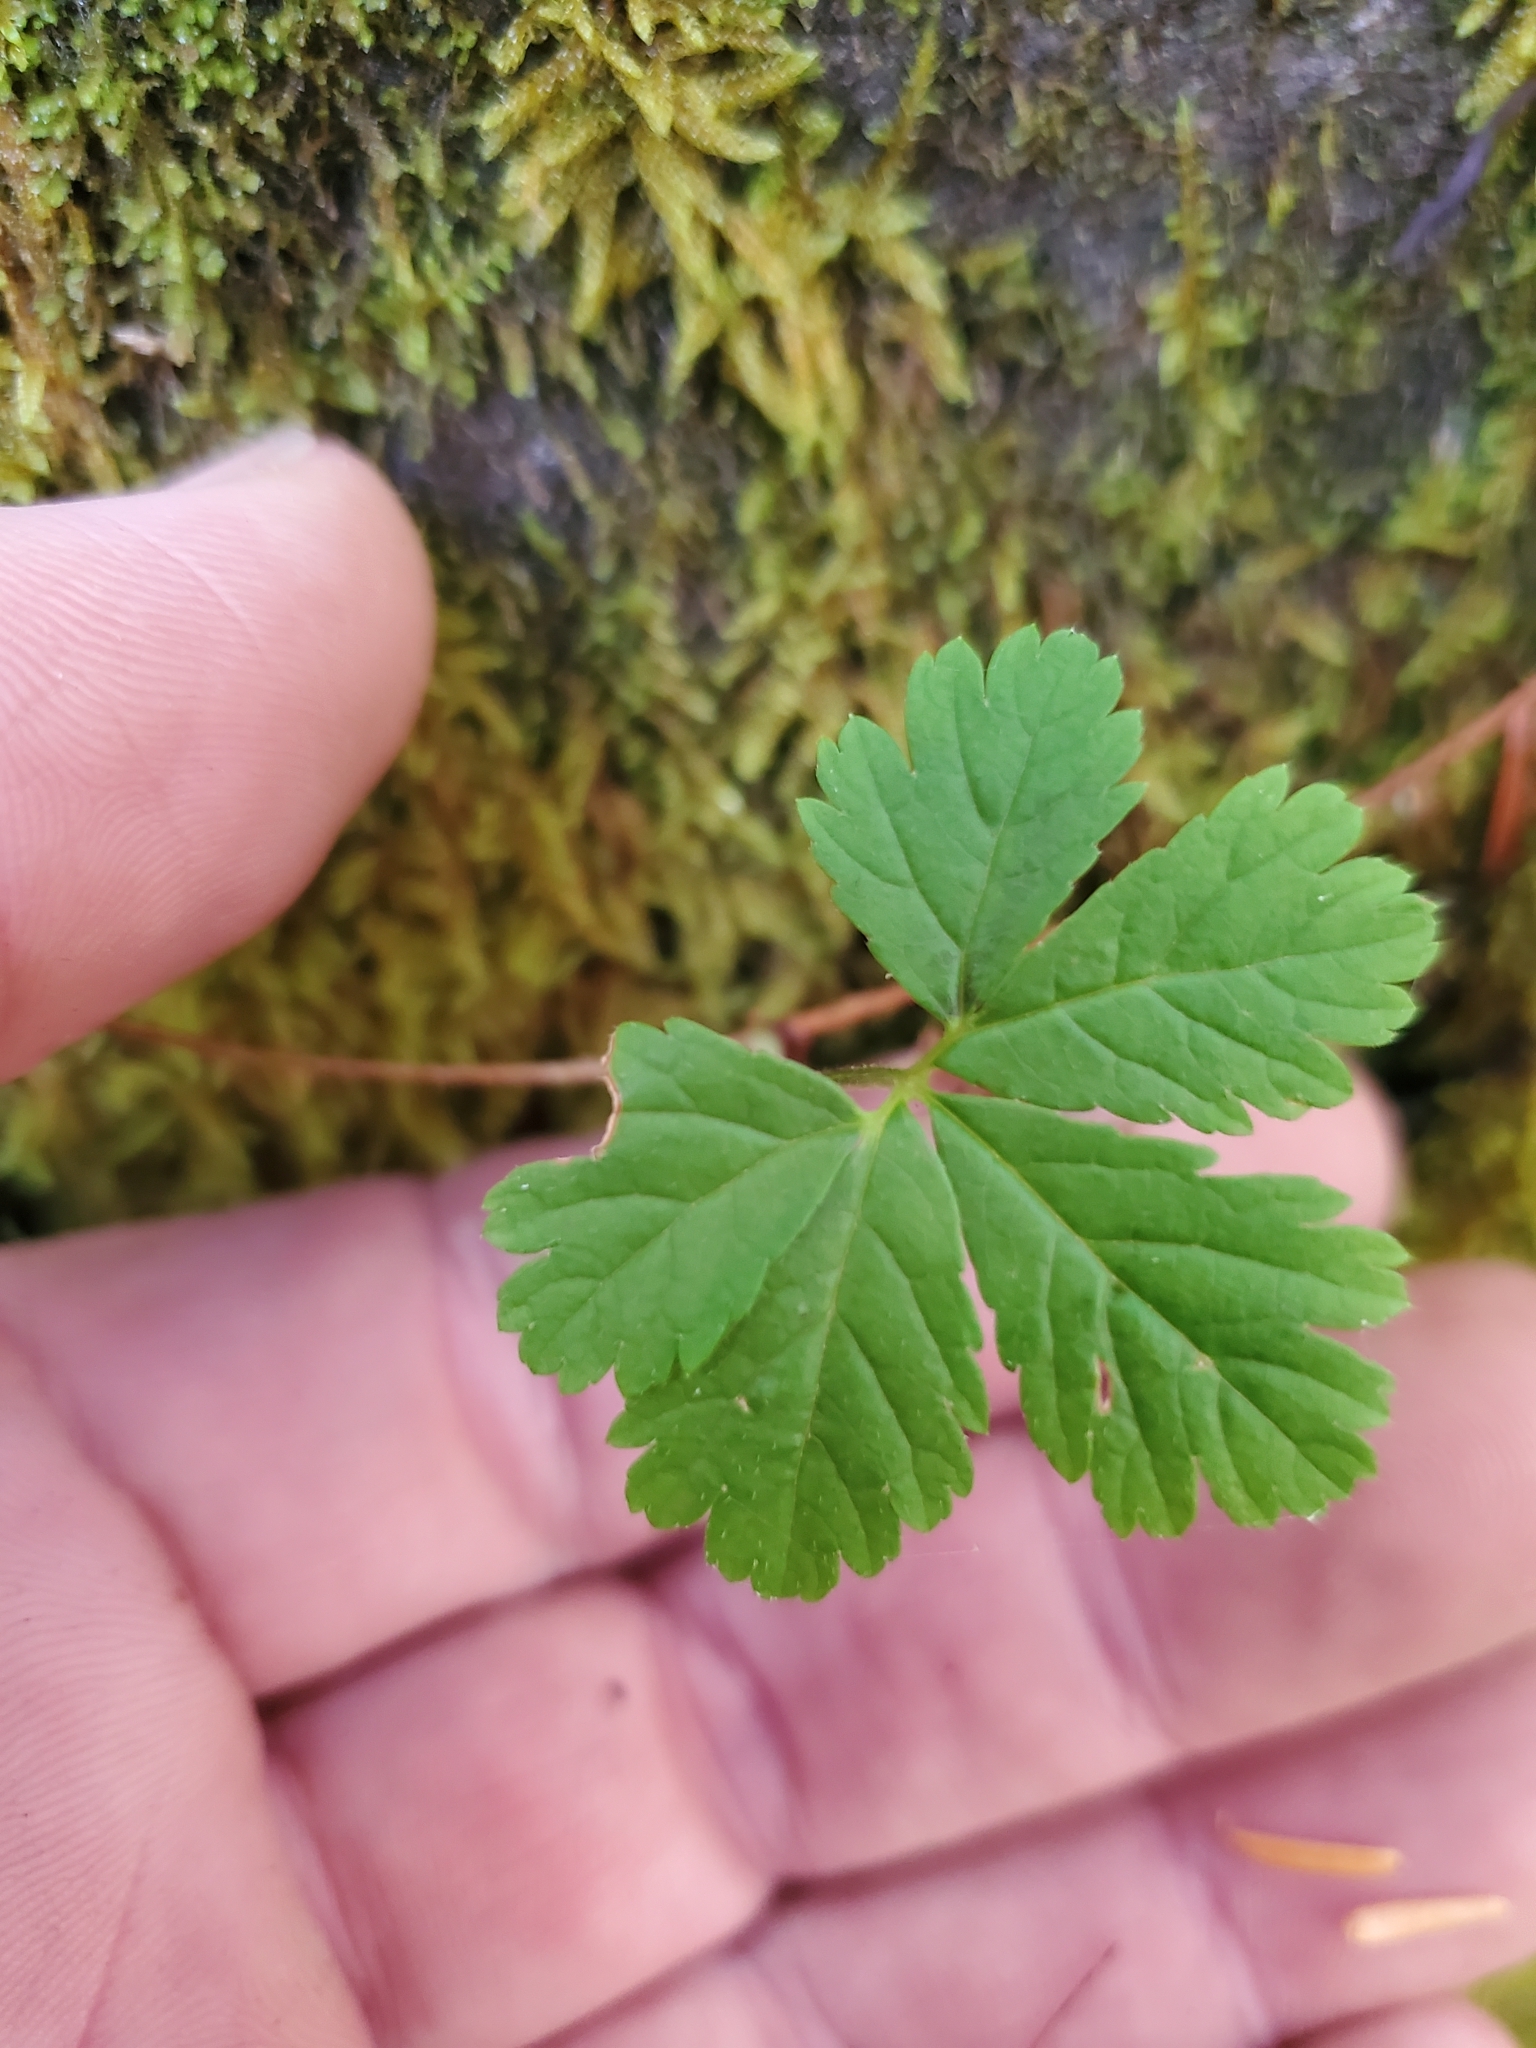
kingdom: Plantae
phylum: Tracheophyta
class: Magnoliopsida
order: Rosales
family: Rosaceae
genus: Rubus
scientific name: Rubus pedatus
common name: Creeping raspberry
